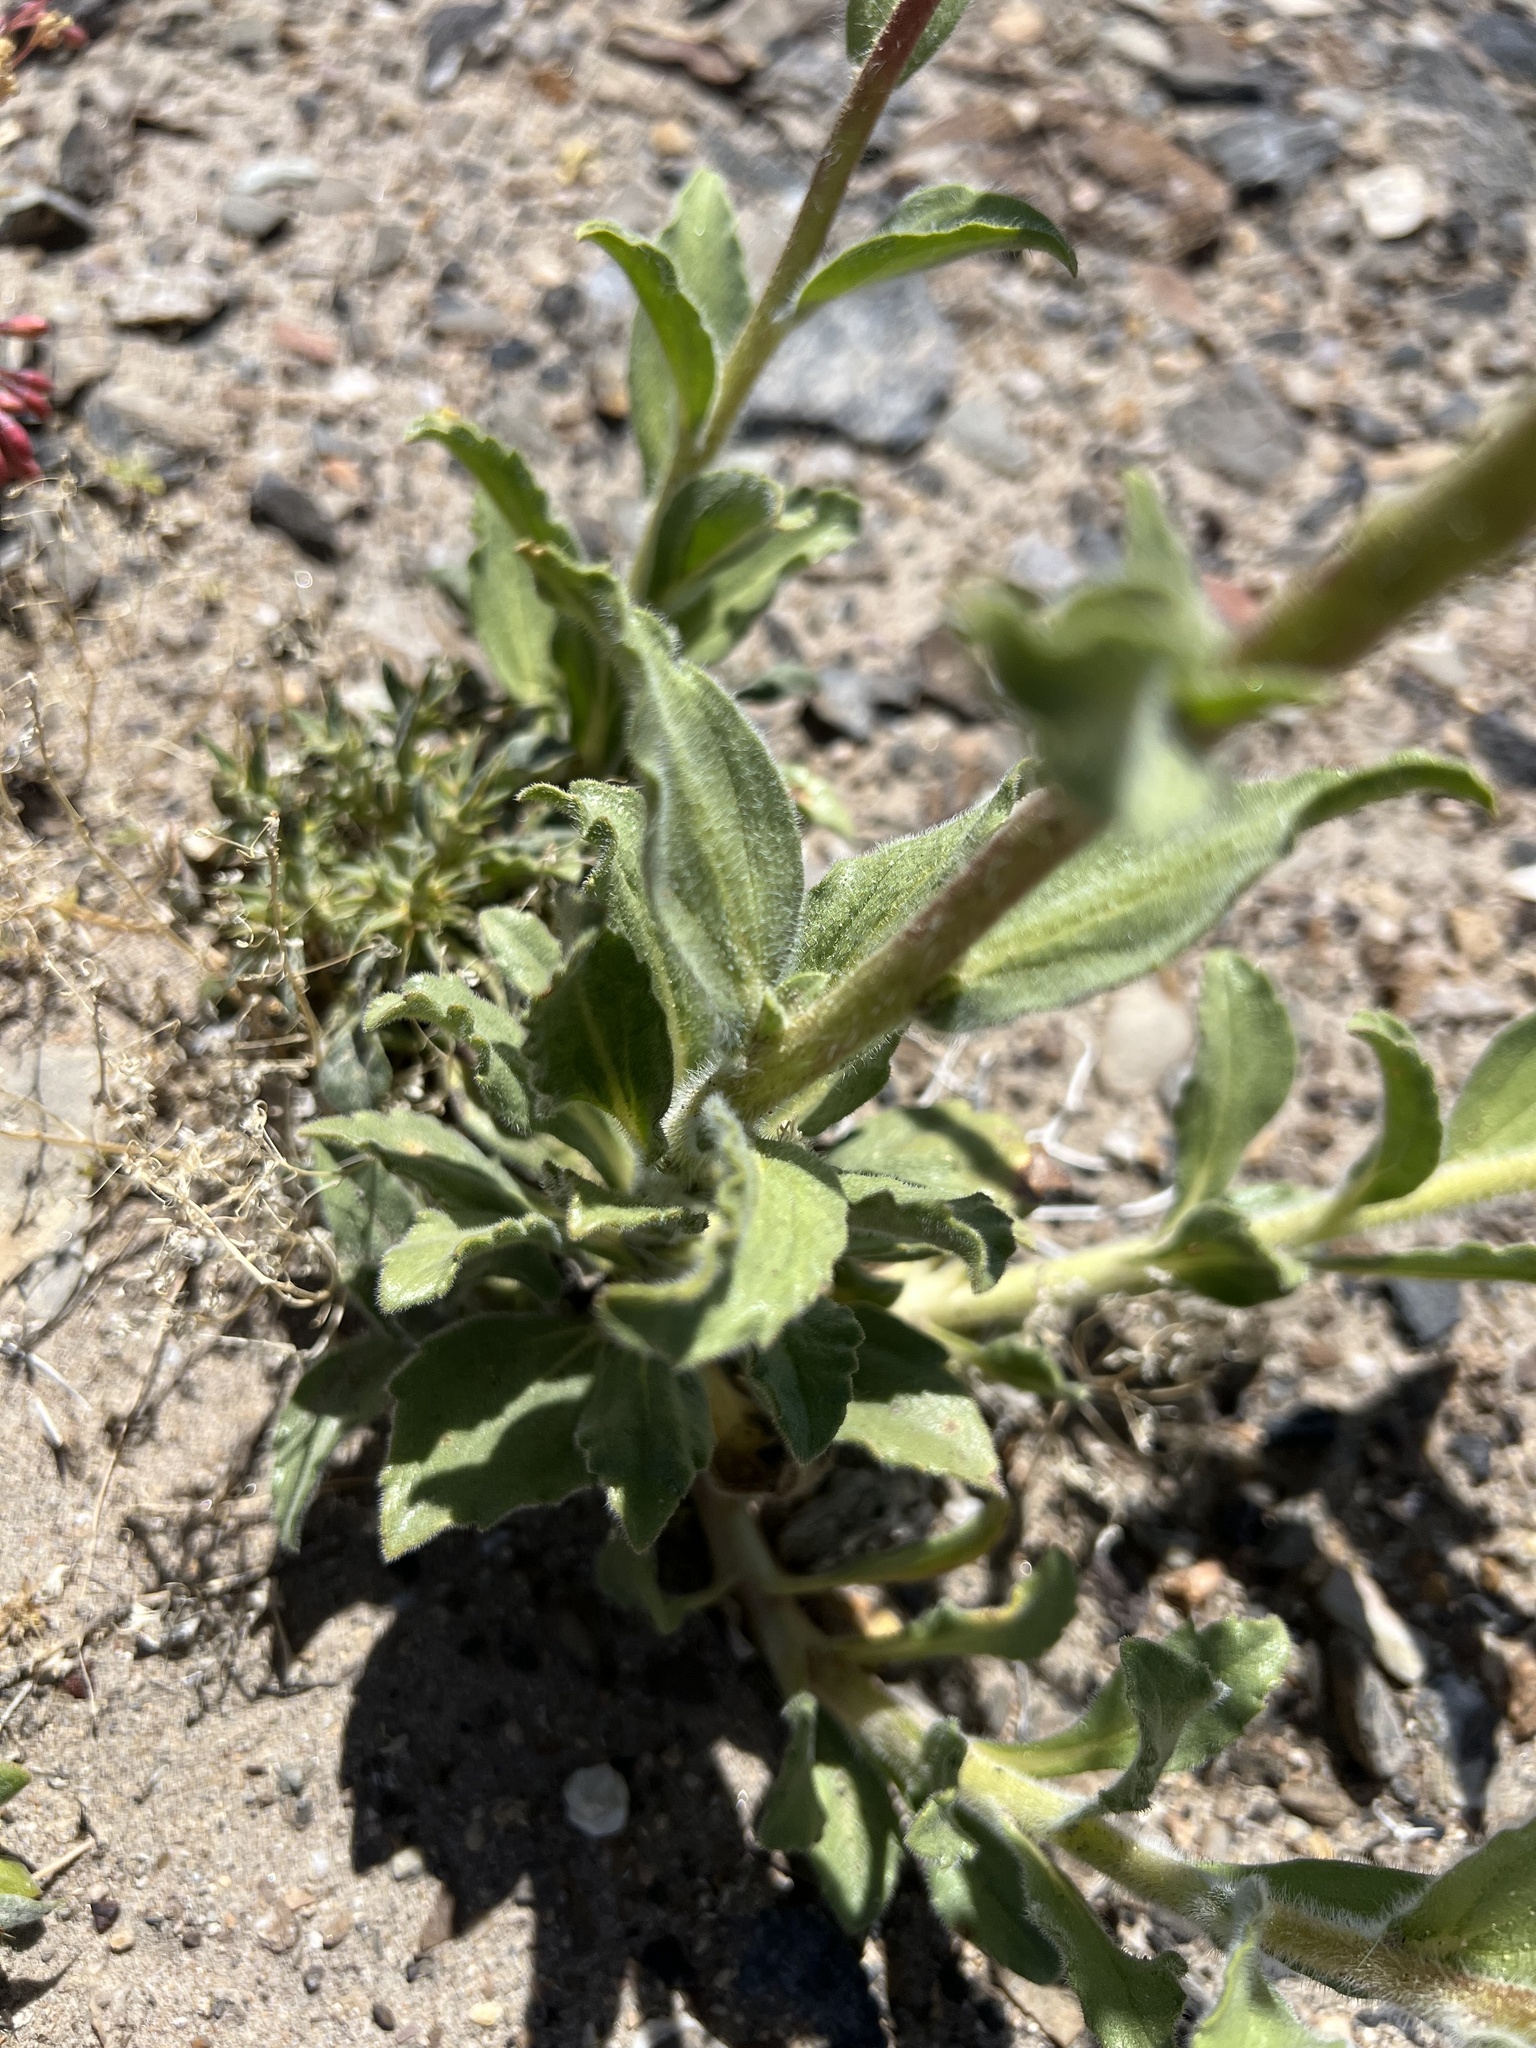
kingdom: Plantae
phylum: Tracheophyta
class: Magnoliopsida
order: Asterales
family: Asteraceae
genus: Geraea
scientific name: Geraea canescens
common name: Desert-gold
